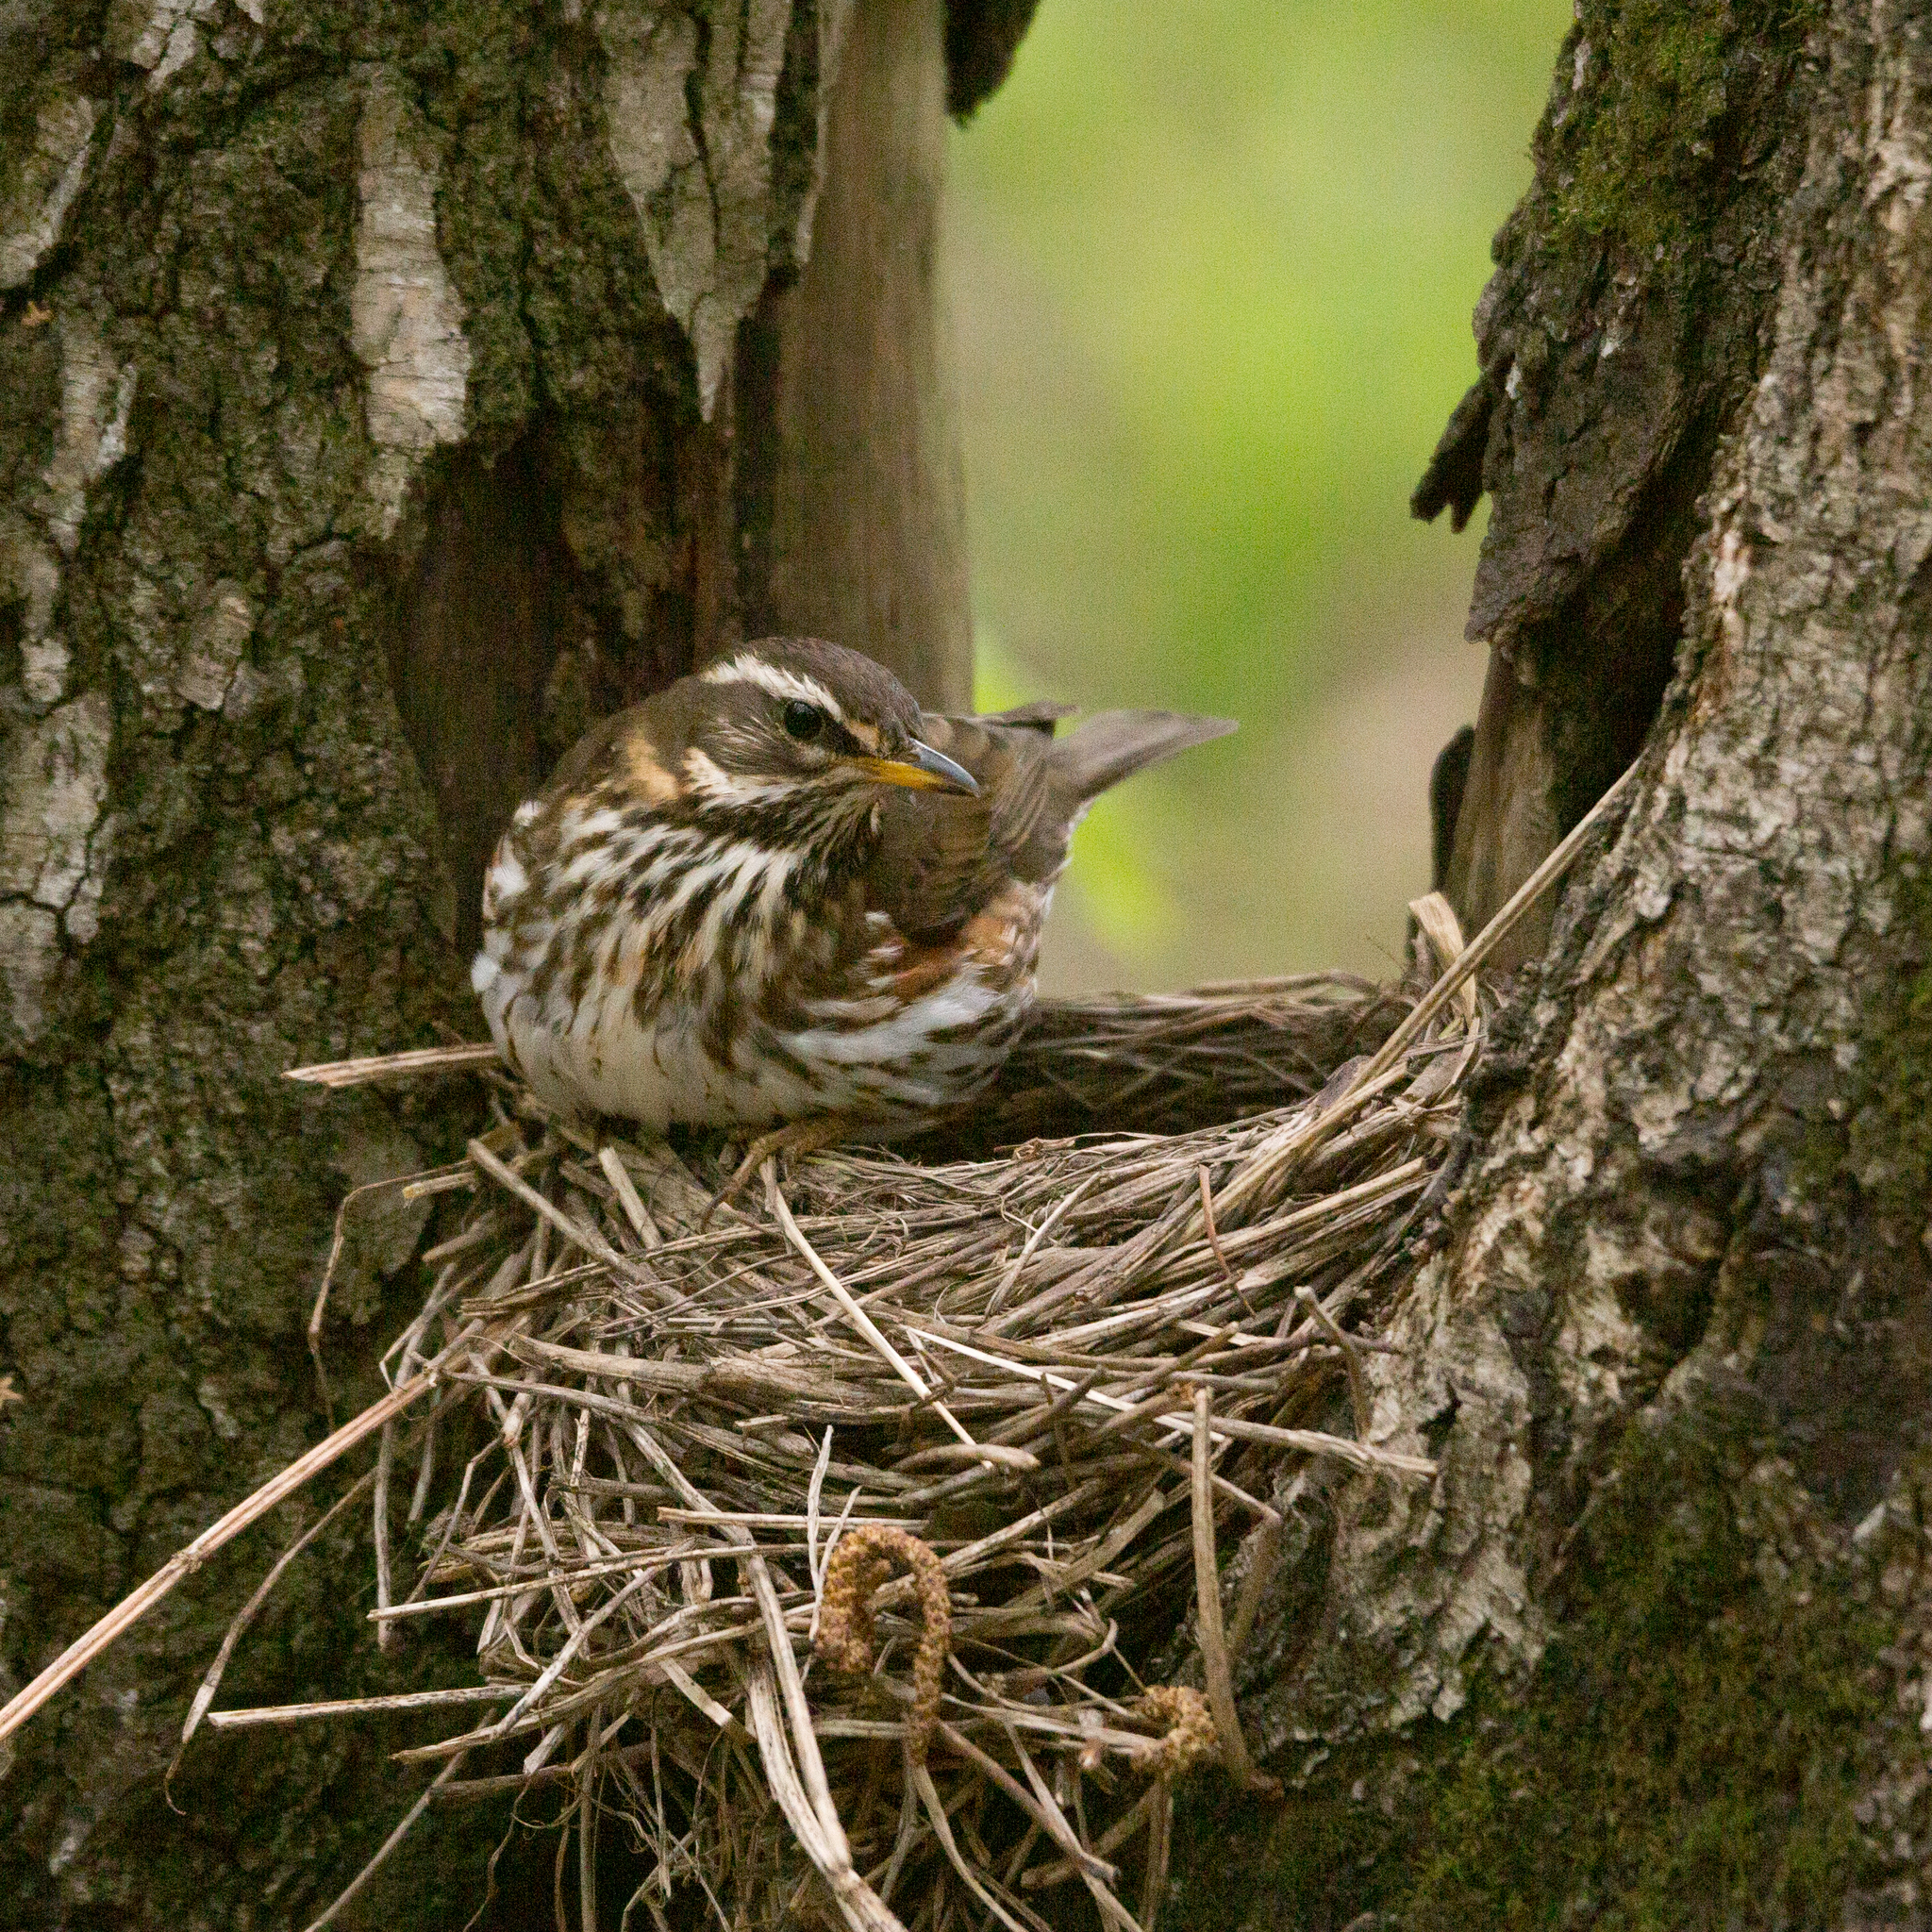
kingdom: Animalia
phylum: Chordata
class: Aves
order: Passeriformes
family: Turdidae
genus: Turdus
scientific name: Turdus iliacus
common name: Redwing
